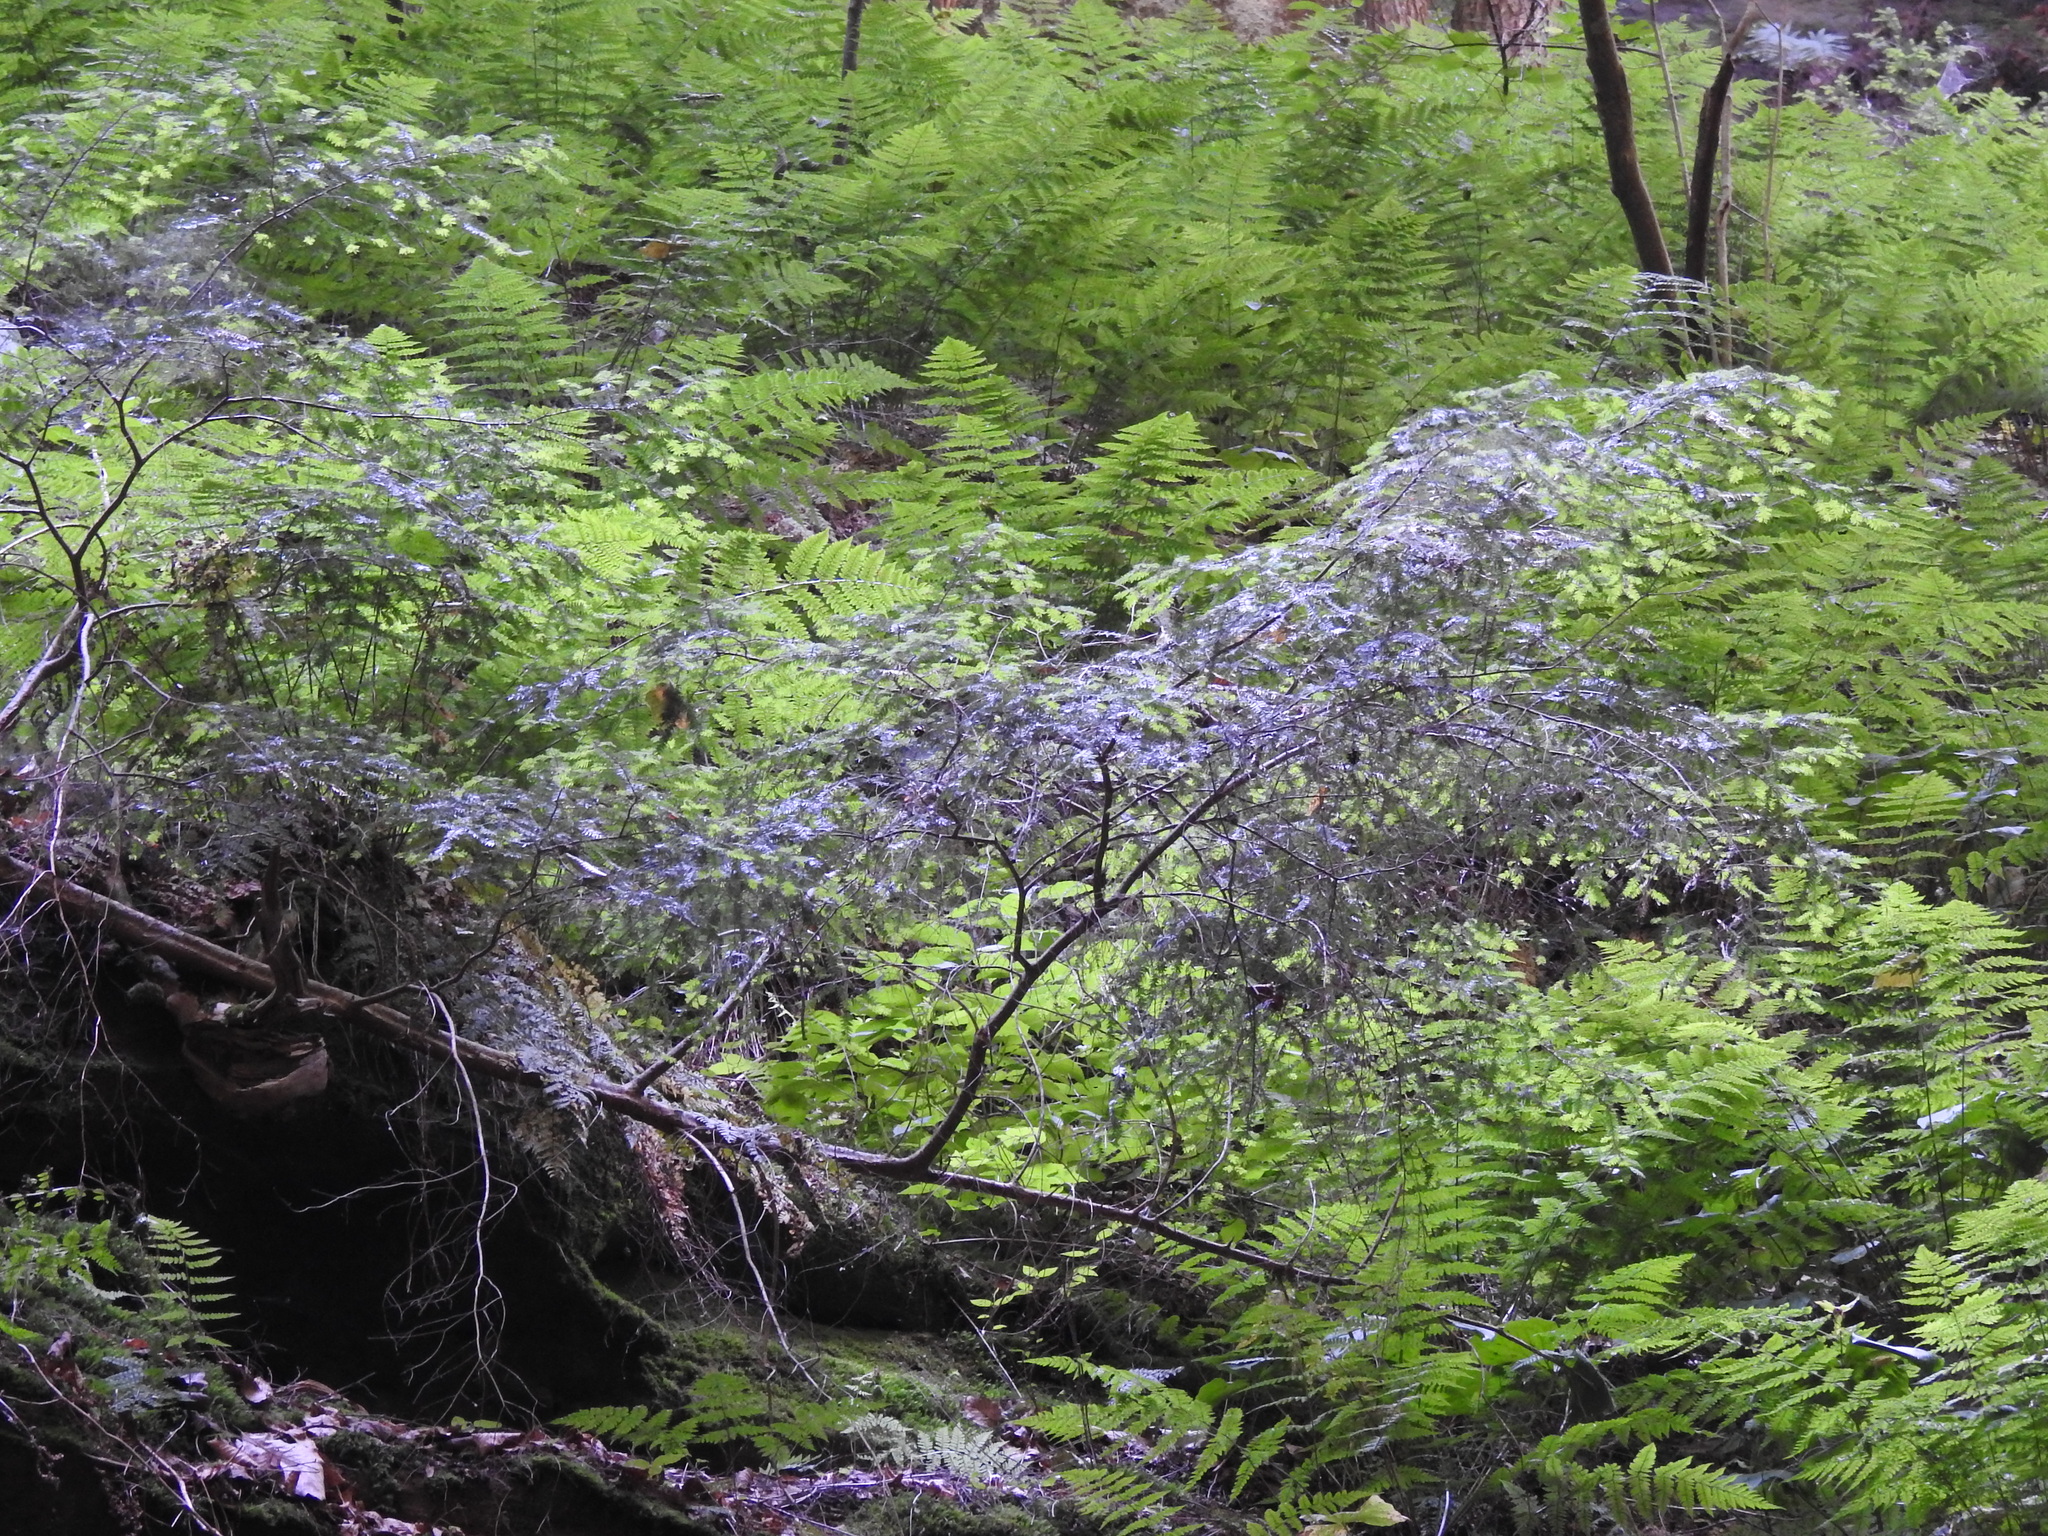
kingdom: Plantae
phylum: Tracheophyta
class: Pinopsida
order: Pinales
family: Pinaceae
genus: Tsuga
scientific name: Tsuga canadensis
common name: Eastern hemlock
